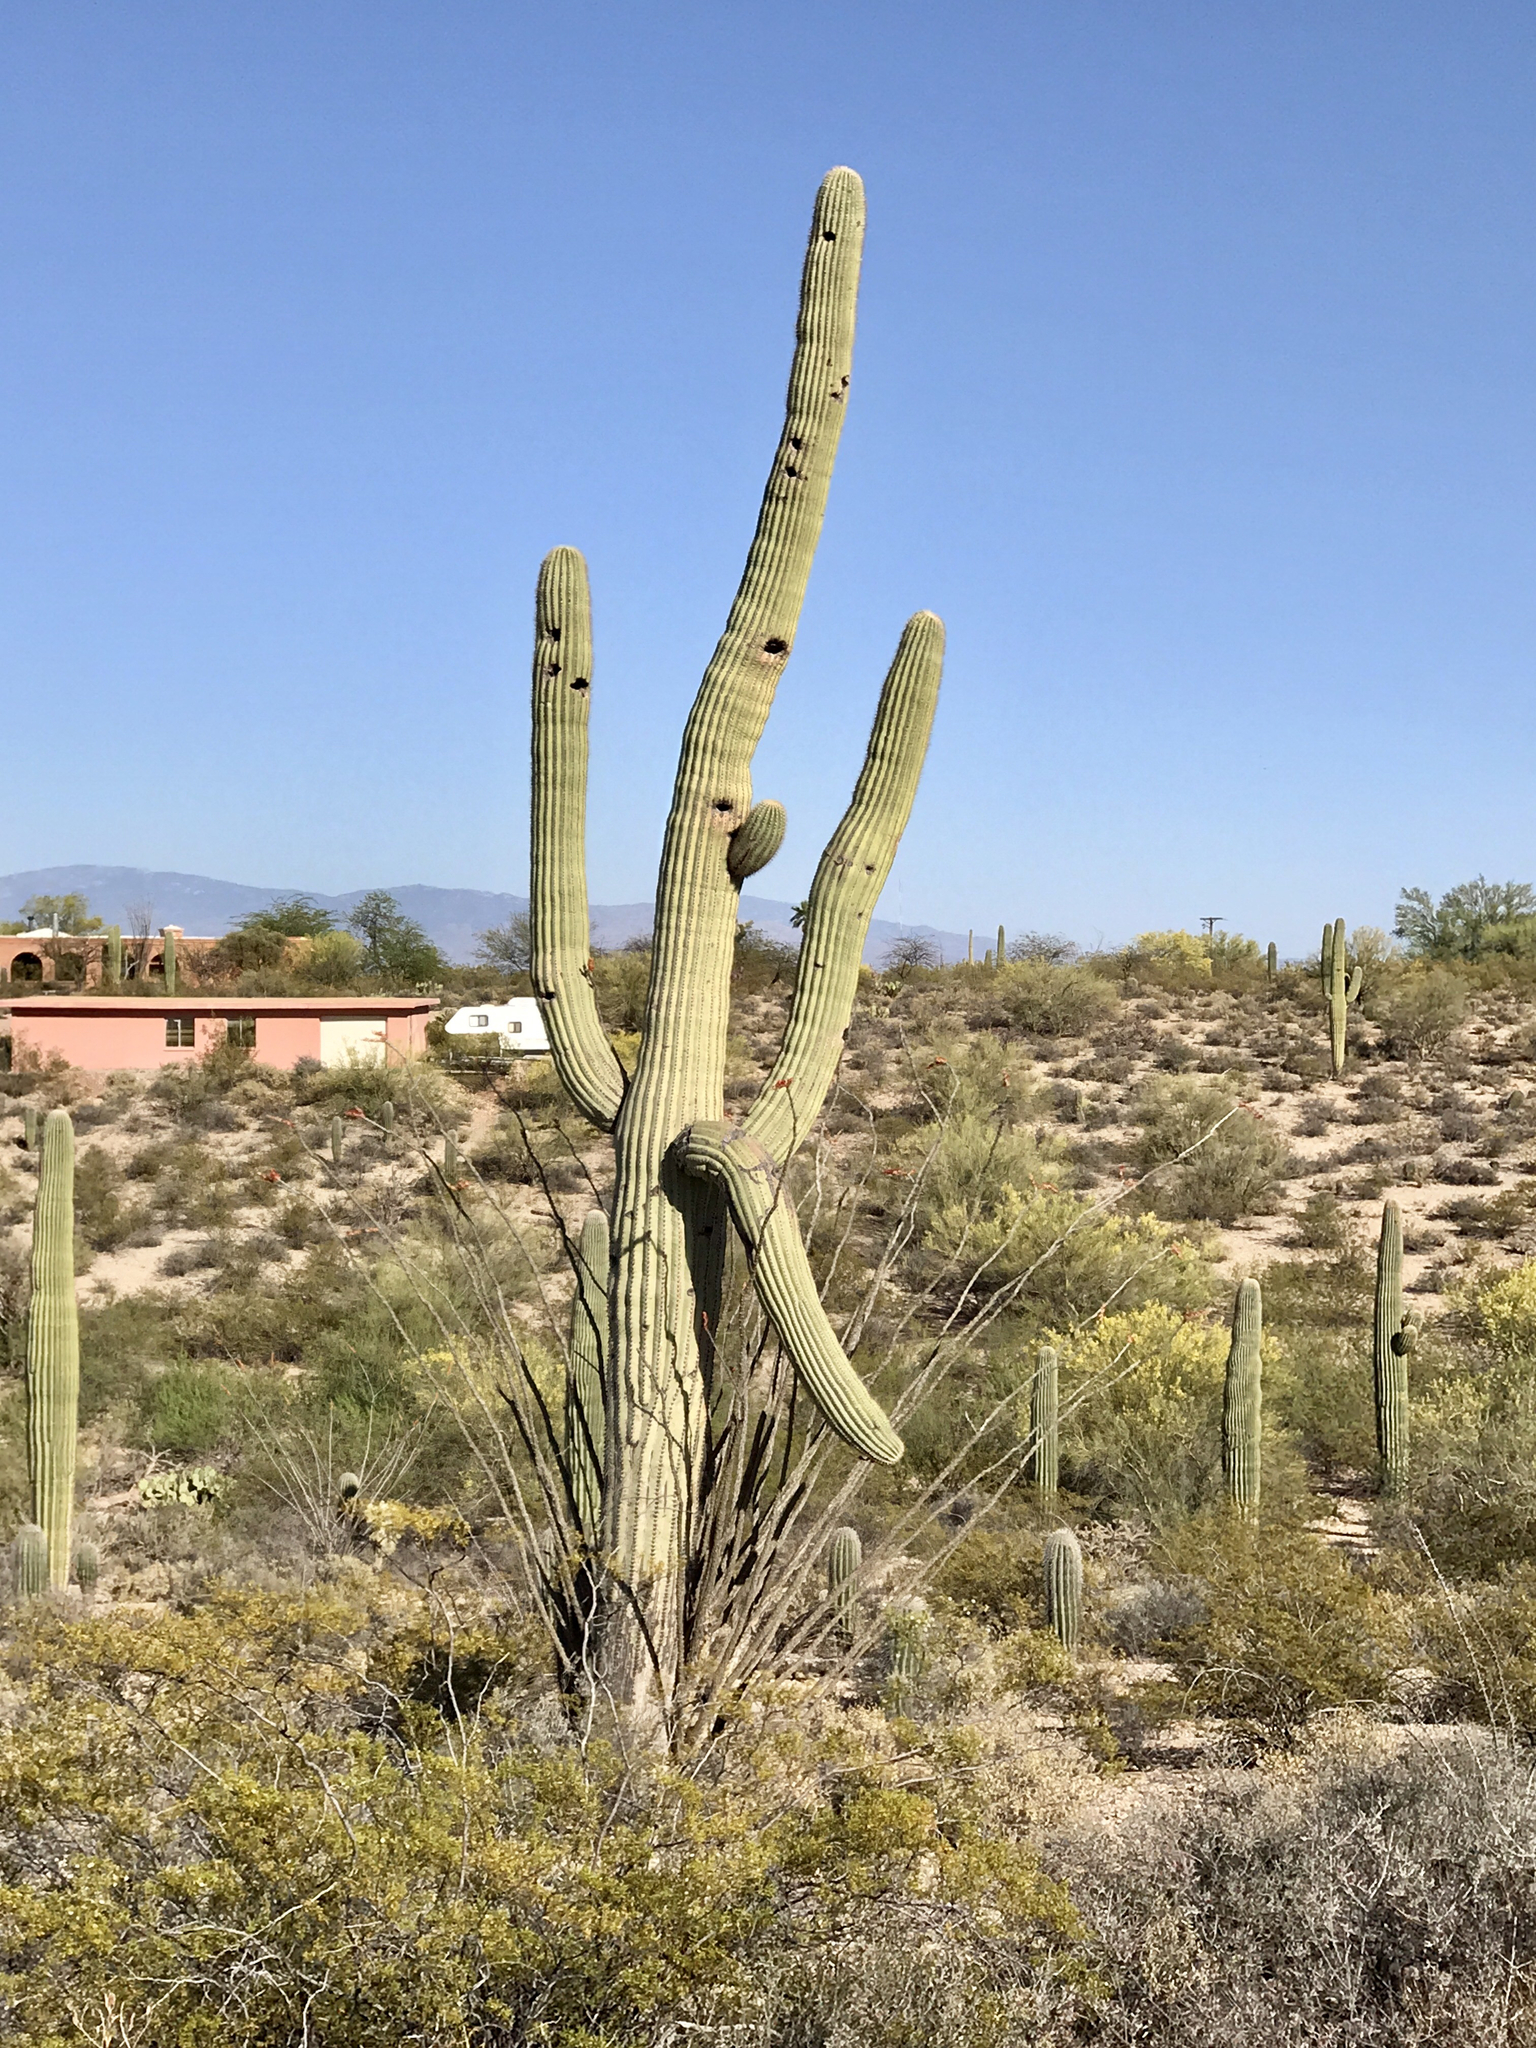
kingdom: Plantae
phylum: Tracheophyta
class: Magnoliopsida
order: Caryophyllales
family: Cactaceae
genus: Carnegiea
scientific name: Carnegiea gigantea
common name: Saguaro
